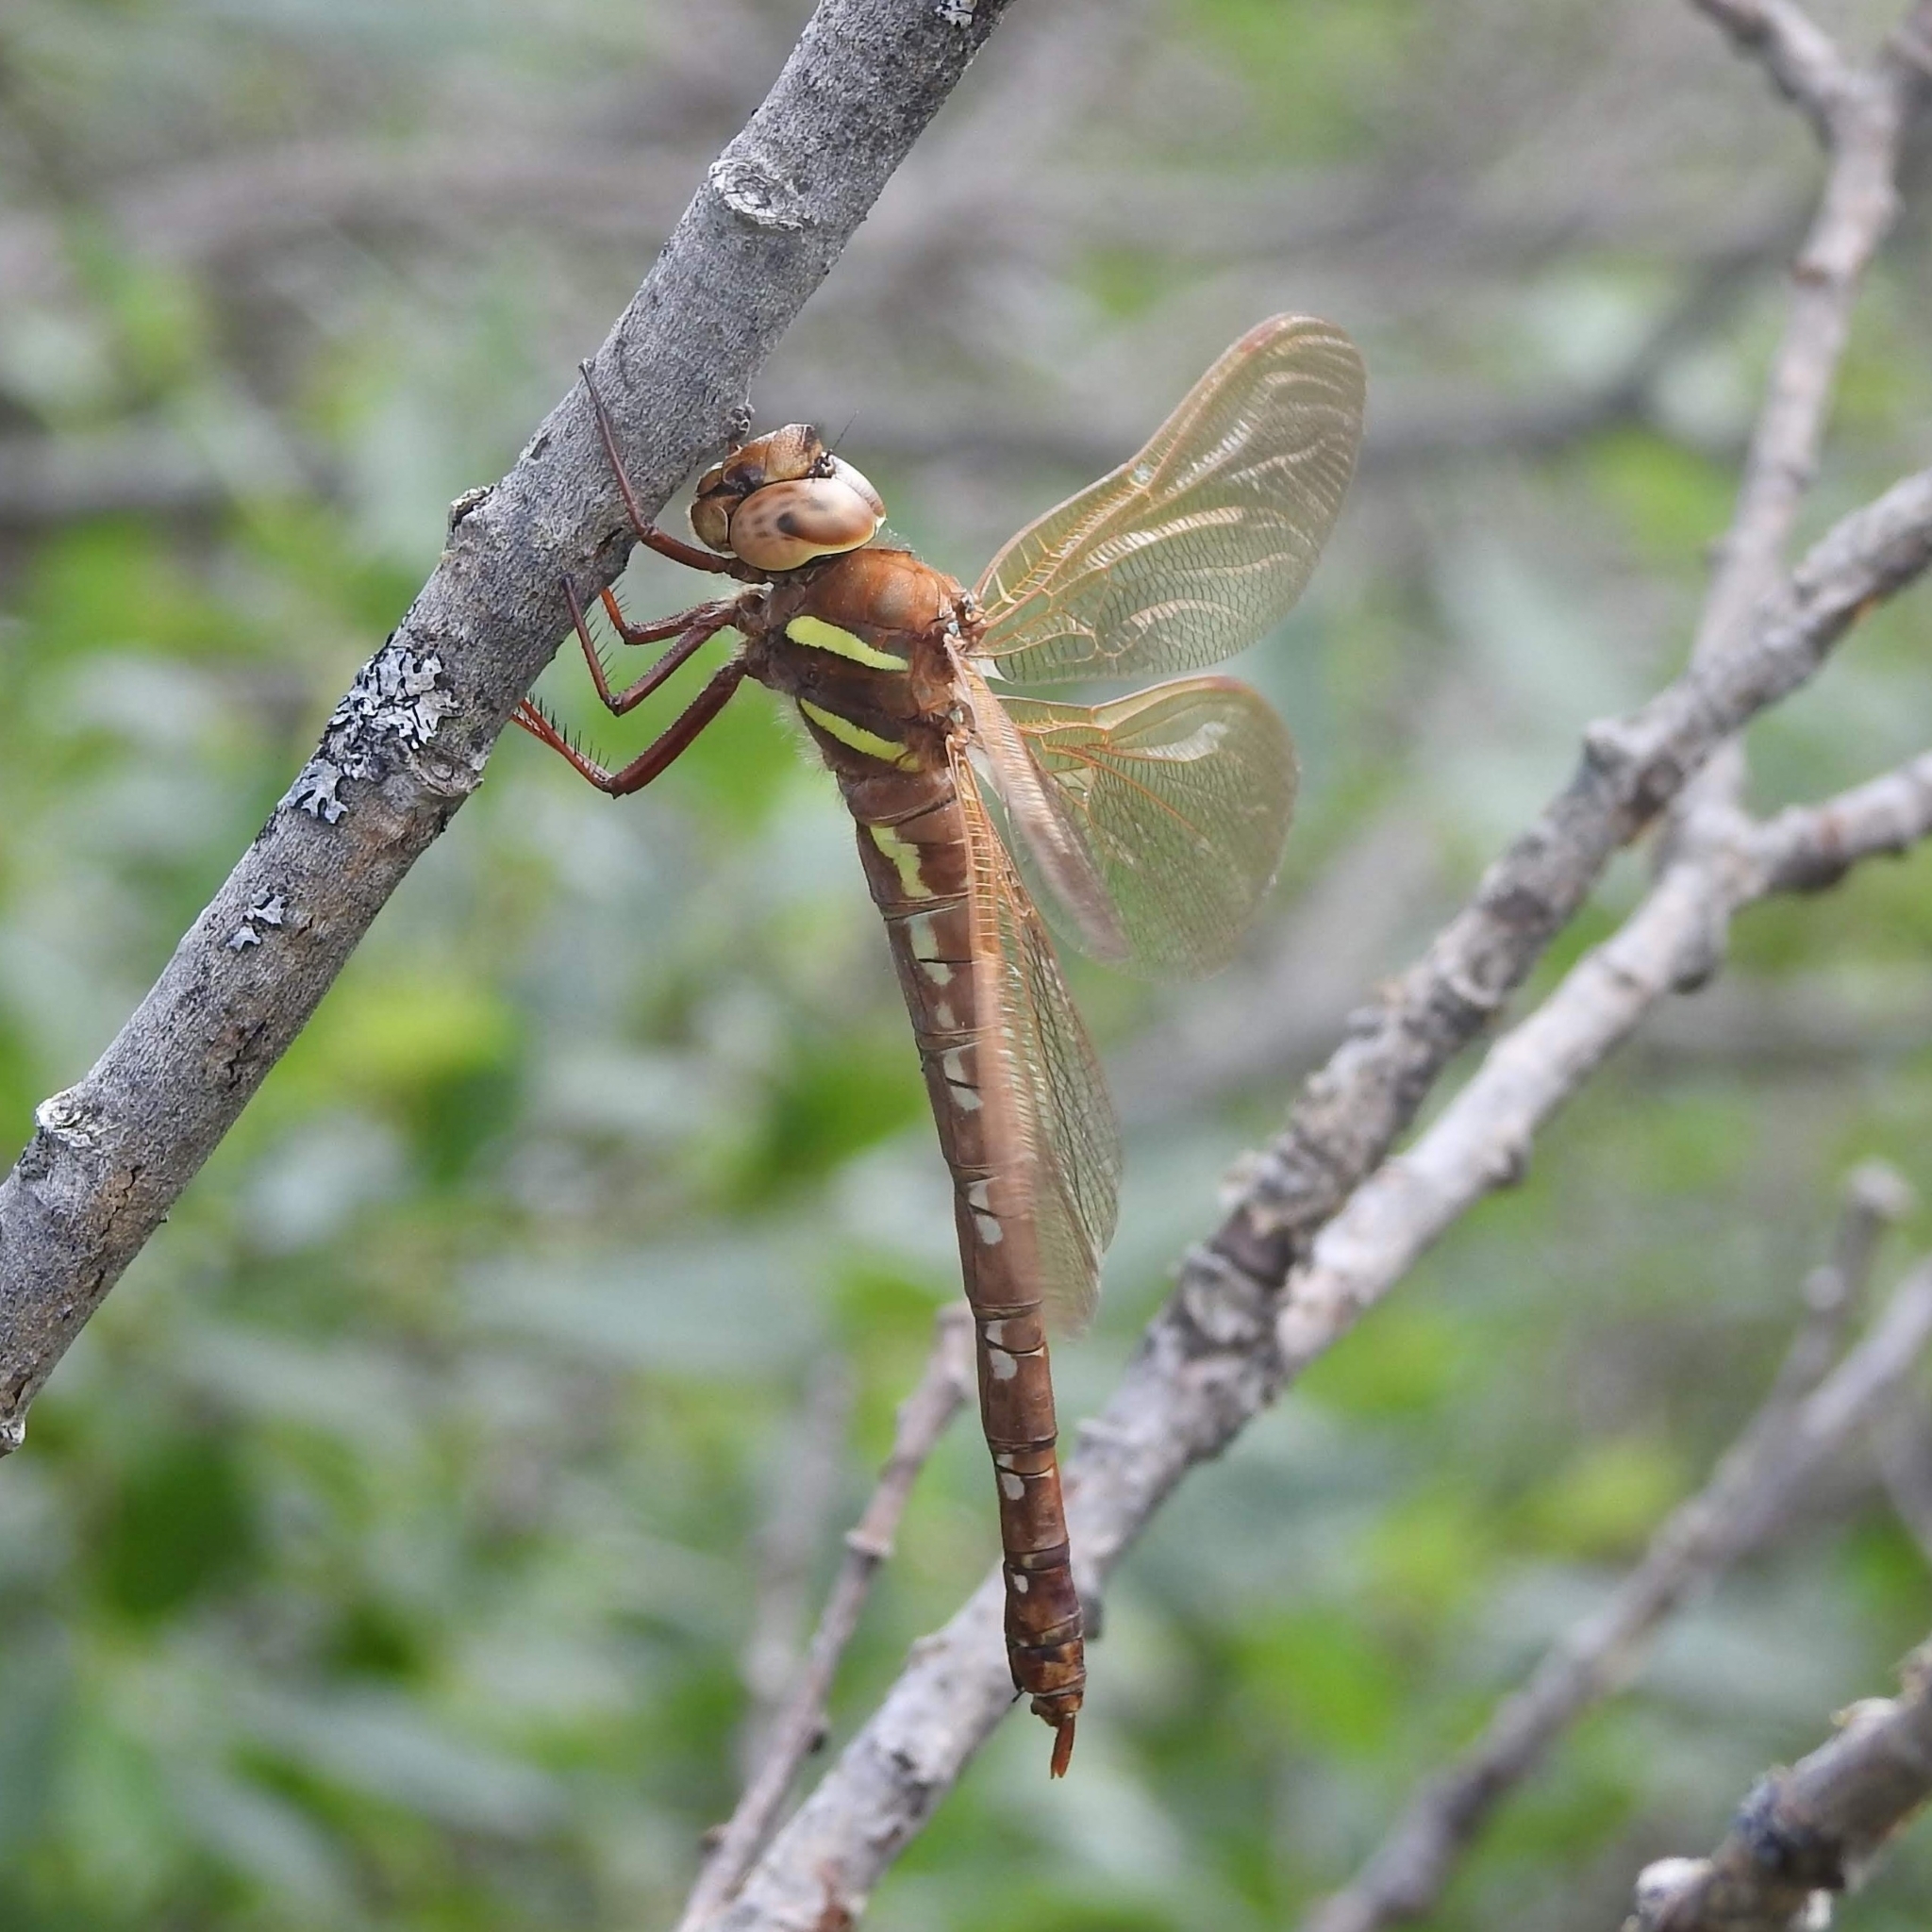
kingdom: Animalia
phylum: Arthropoda
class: Insecta
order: Odonata
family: Aeshnidae
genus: Aeshna
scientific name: Aeshna grandis
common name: Brown hawker
